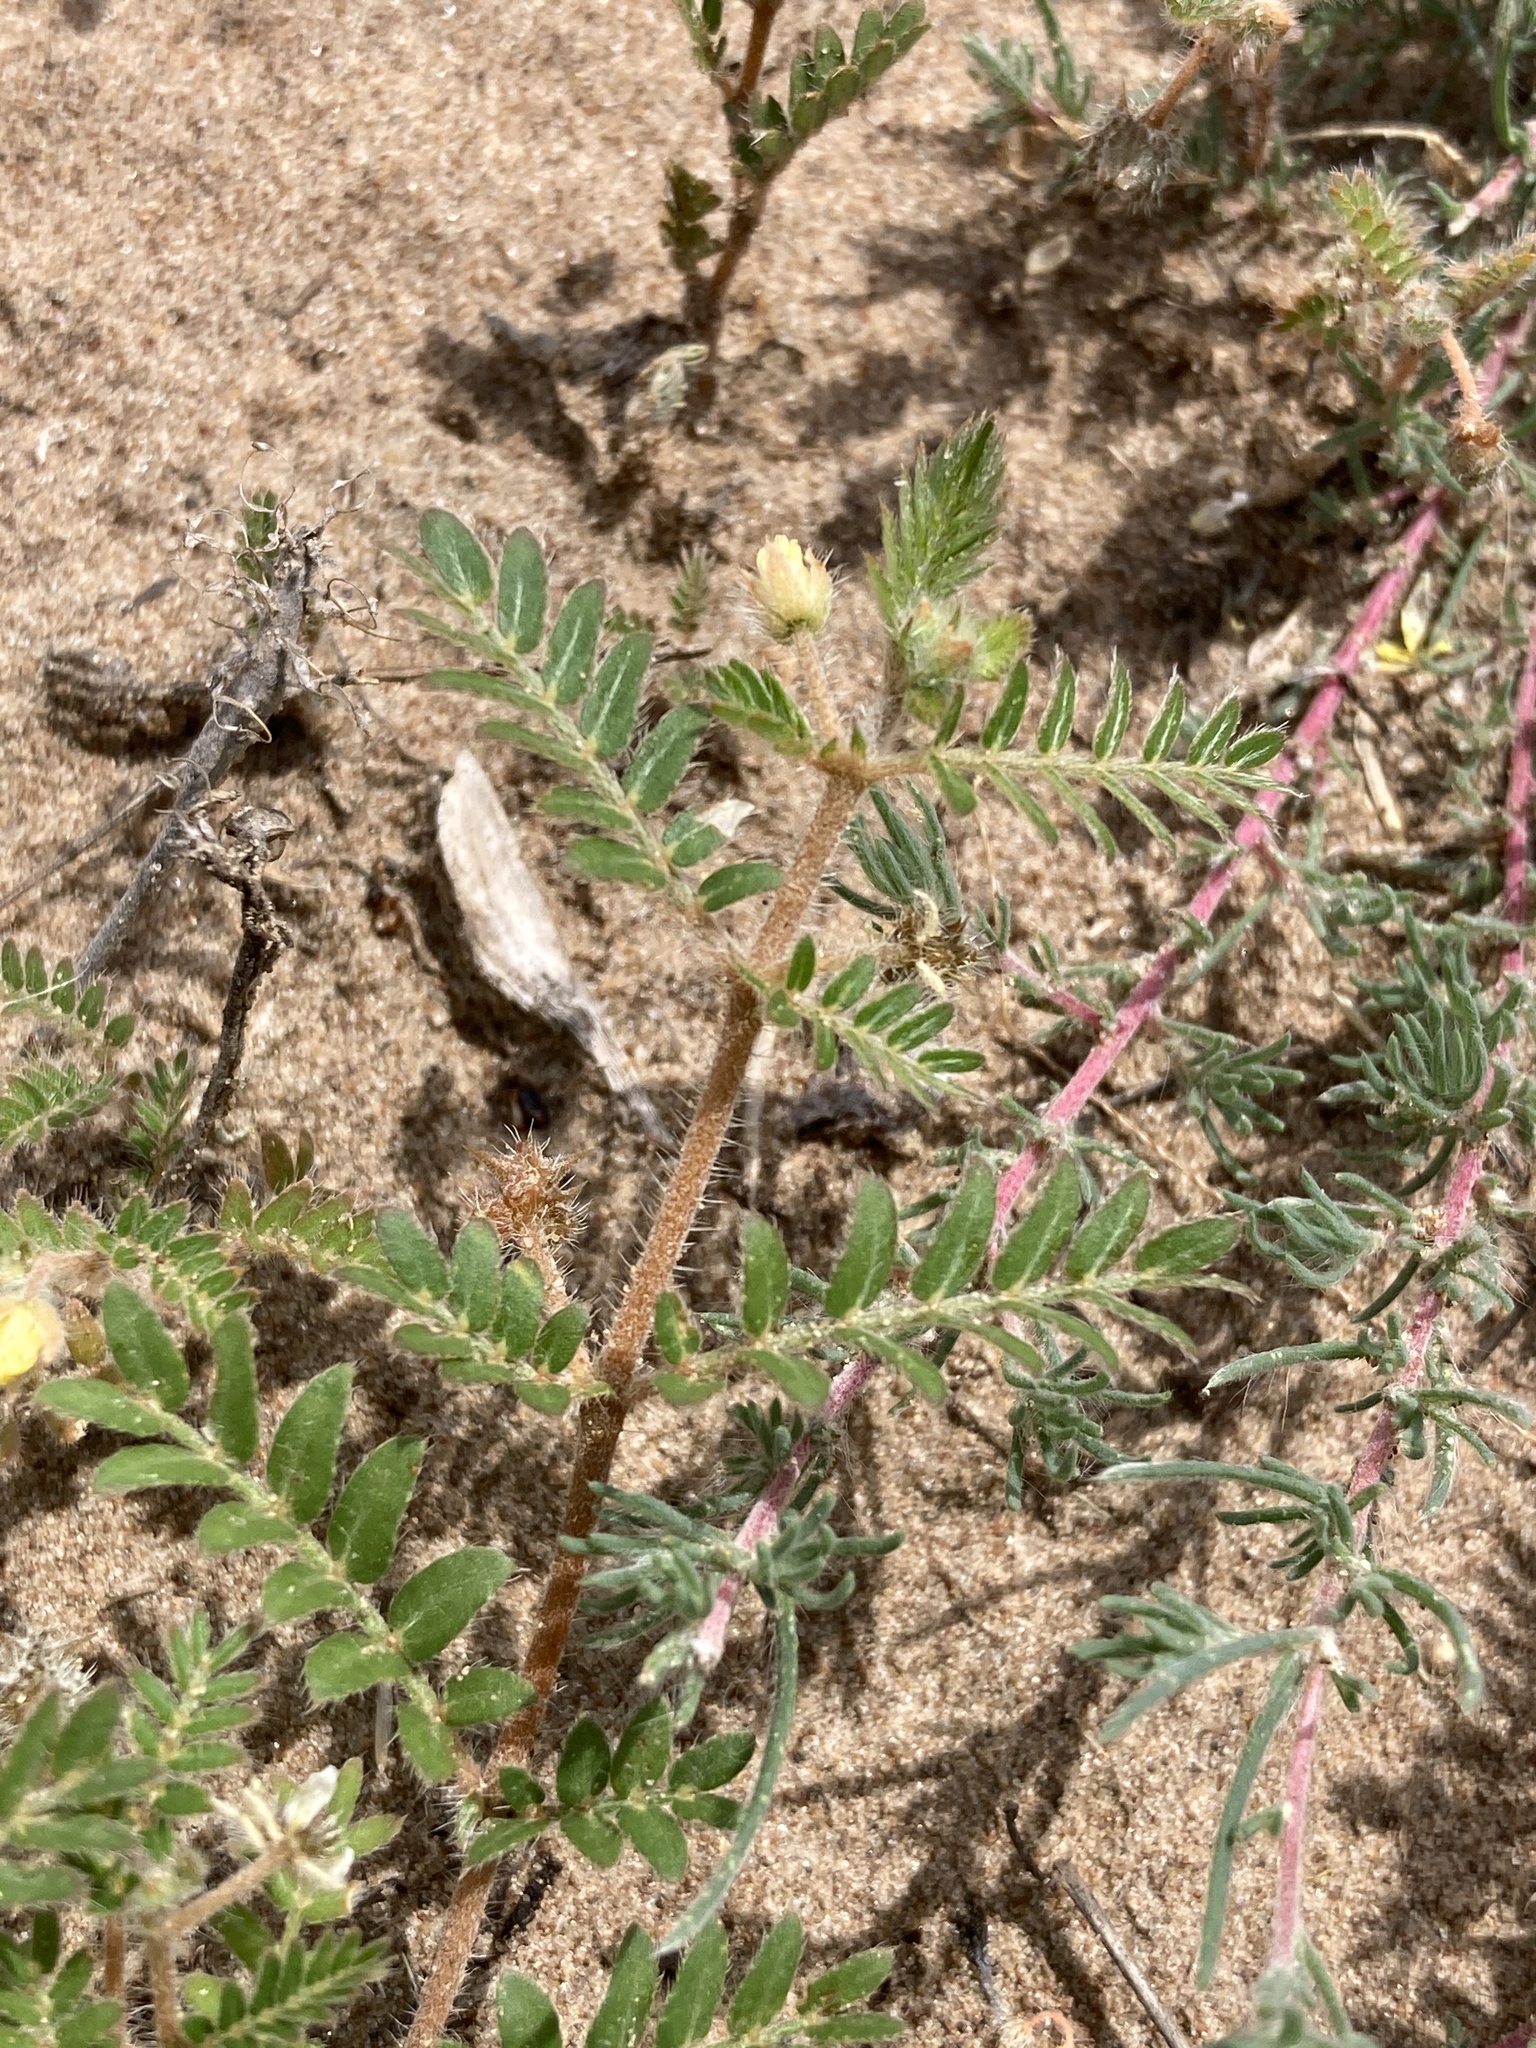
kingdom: Plantae
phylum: Tracheophyta
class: Magnoliopsida
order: Zygophyllales
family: Zygophyllaceae
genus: Tribulus
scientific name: Tribulus terrestris
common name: Puncturevine
